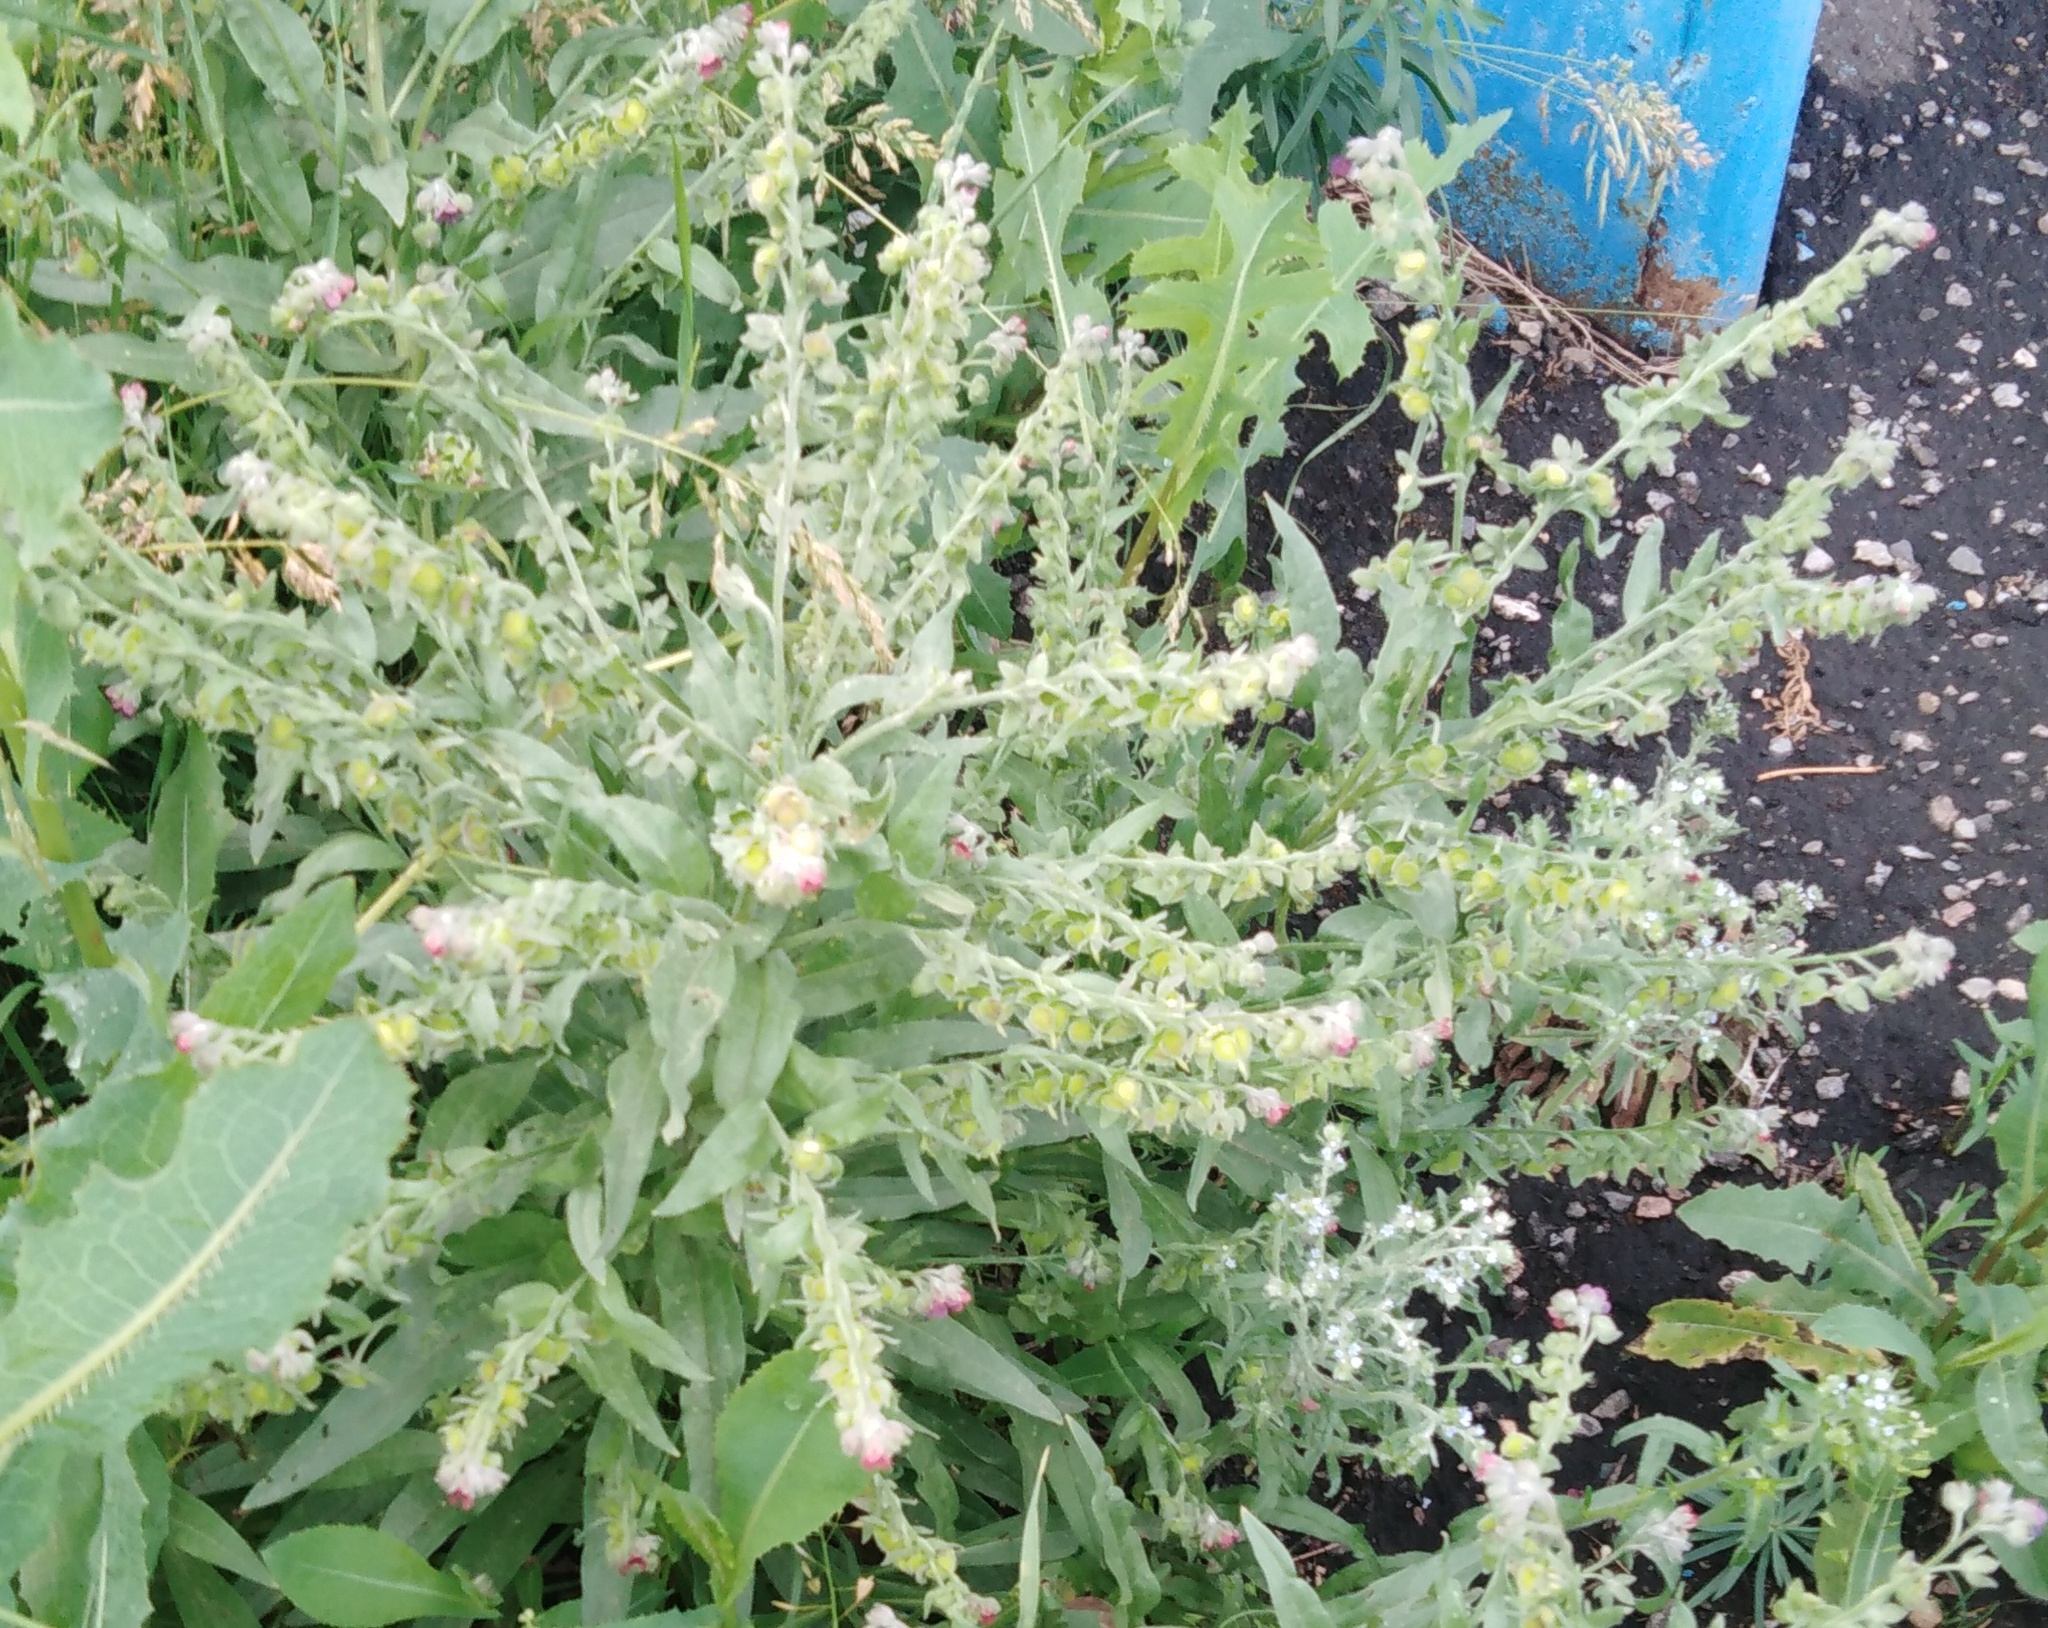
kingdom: Plantae
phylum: Tracheophyta
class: Magnoliopsida
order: Boraginales
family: Boraginaceae
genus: Cynoglossum
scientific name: Cynoglossum officinale
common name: Hound's-tongue
